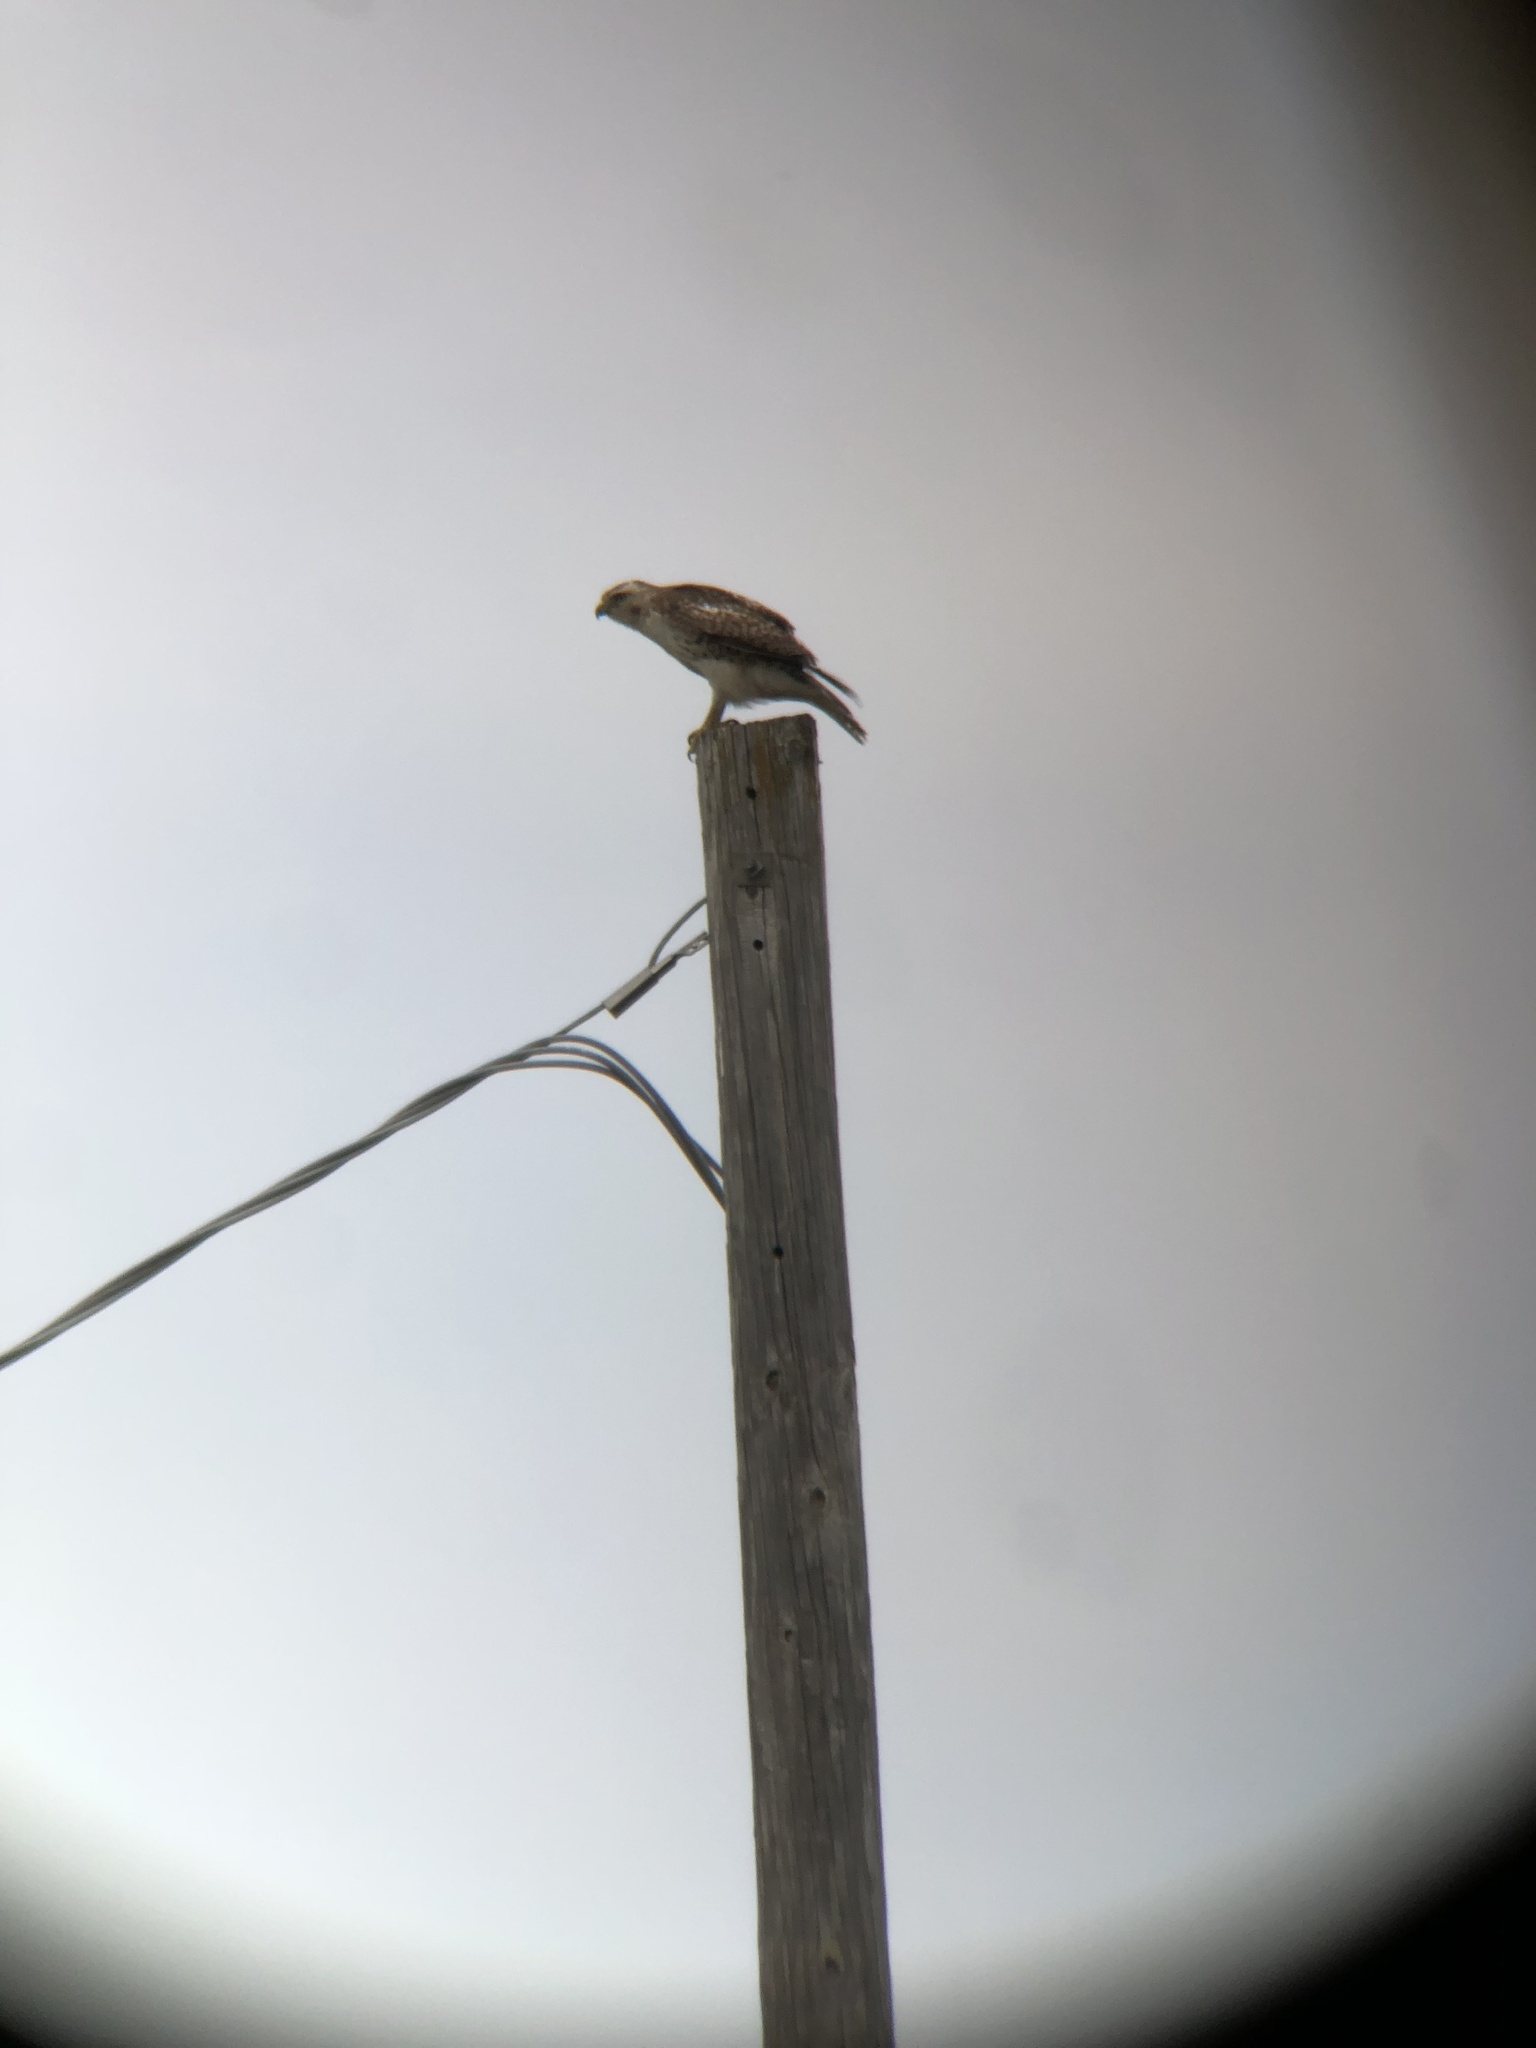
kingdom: Animalia
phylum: Chordata
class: Aves
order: Accipitriformes
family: Accipitridae
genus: Buteo
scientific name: Buteo jamaicensis
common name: Red-tailed hawk
